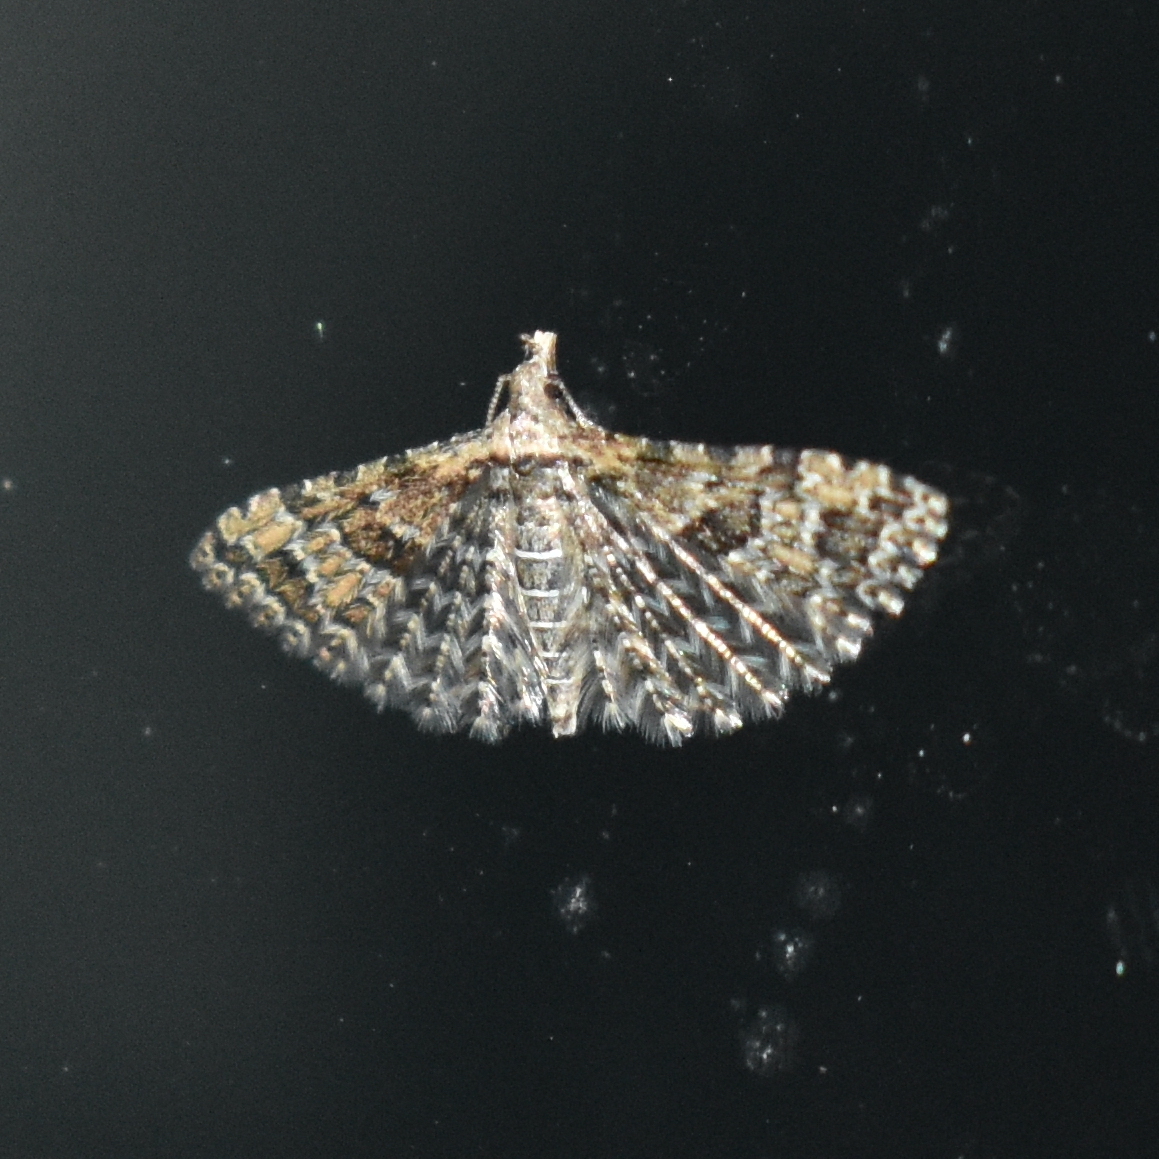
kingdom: Animalia
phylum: Arthropoda
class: Insecta
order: Lepidoptera
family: Alucitidae
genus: Alucita
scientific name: Alucita montana
